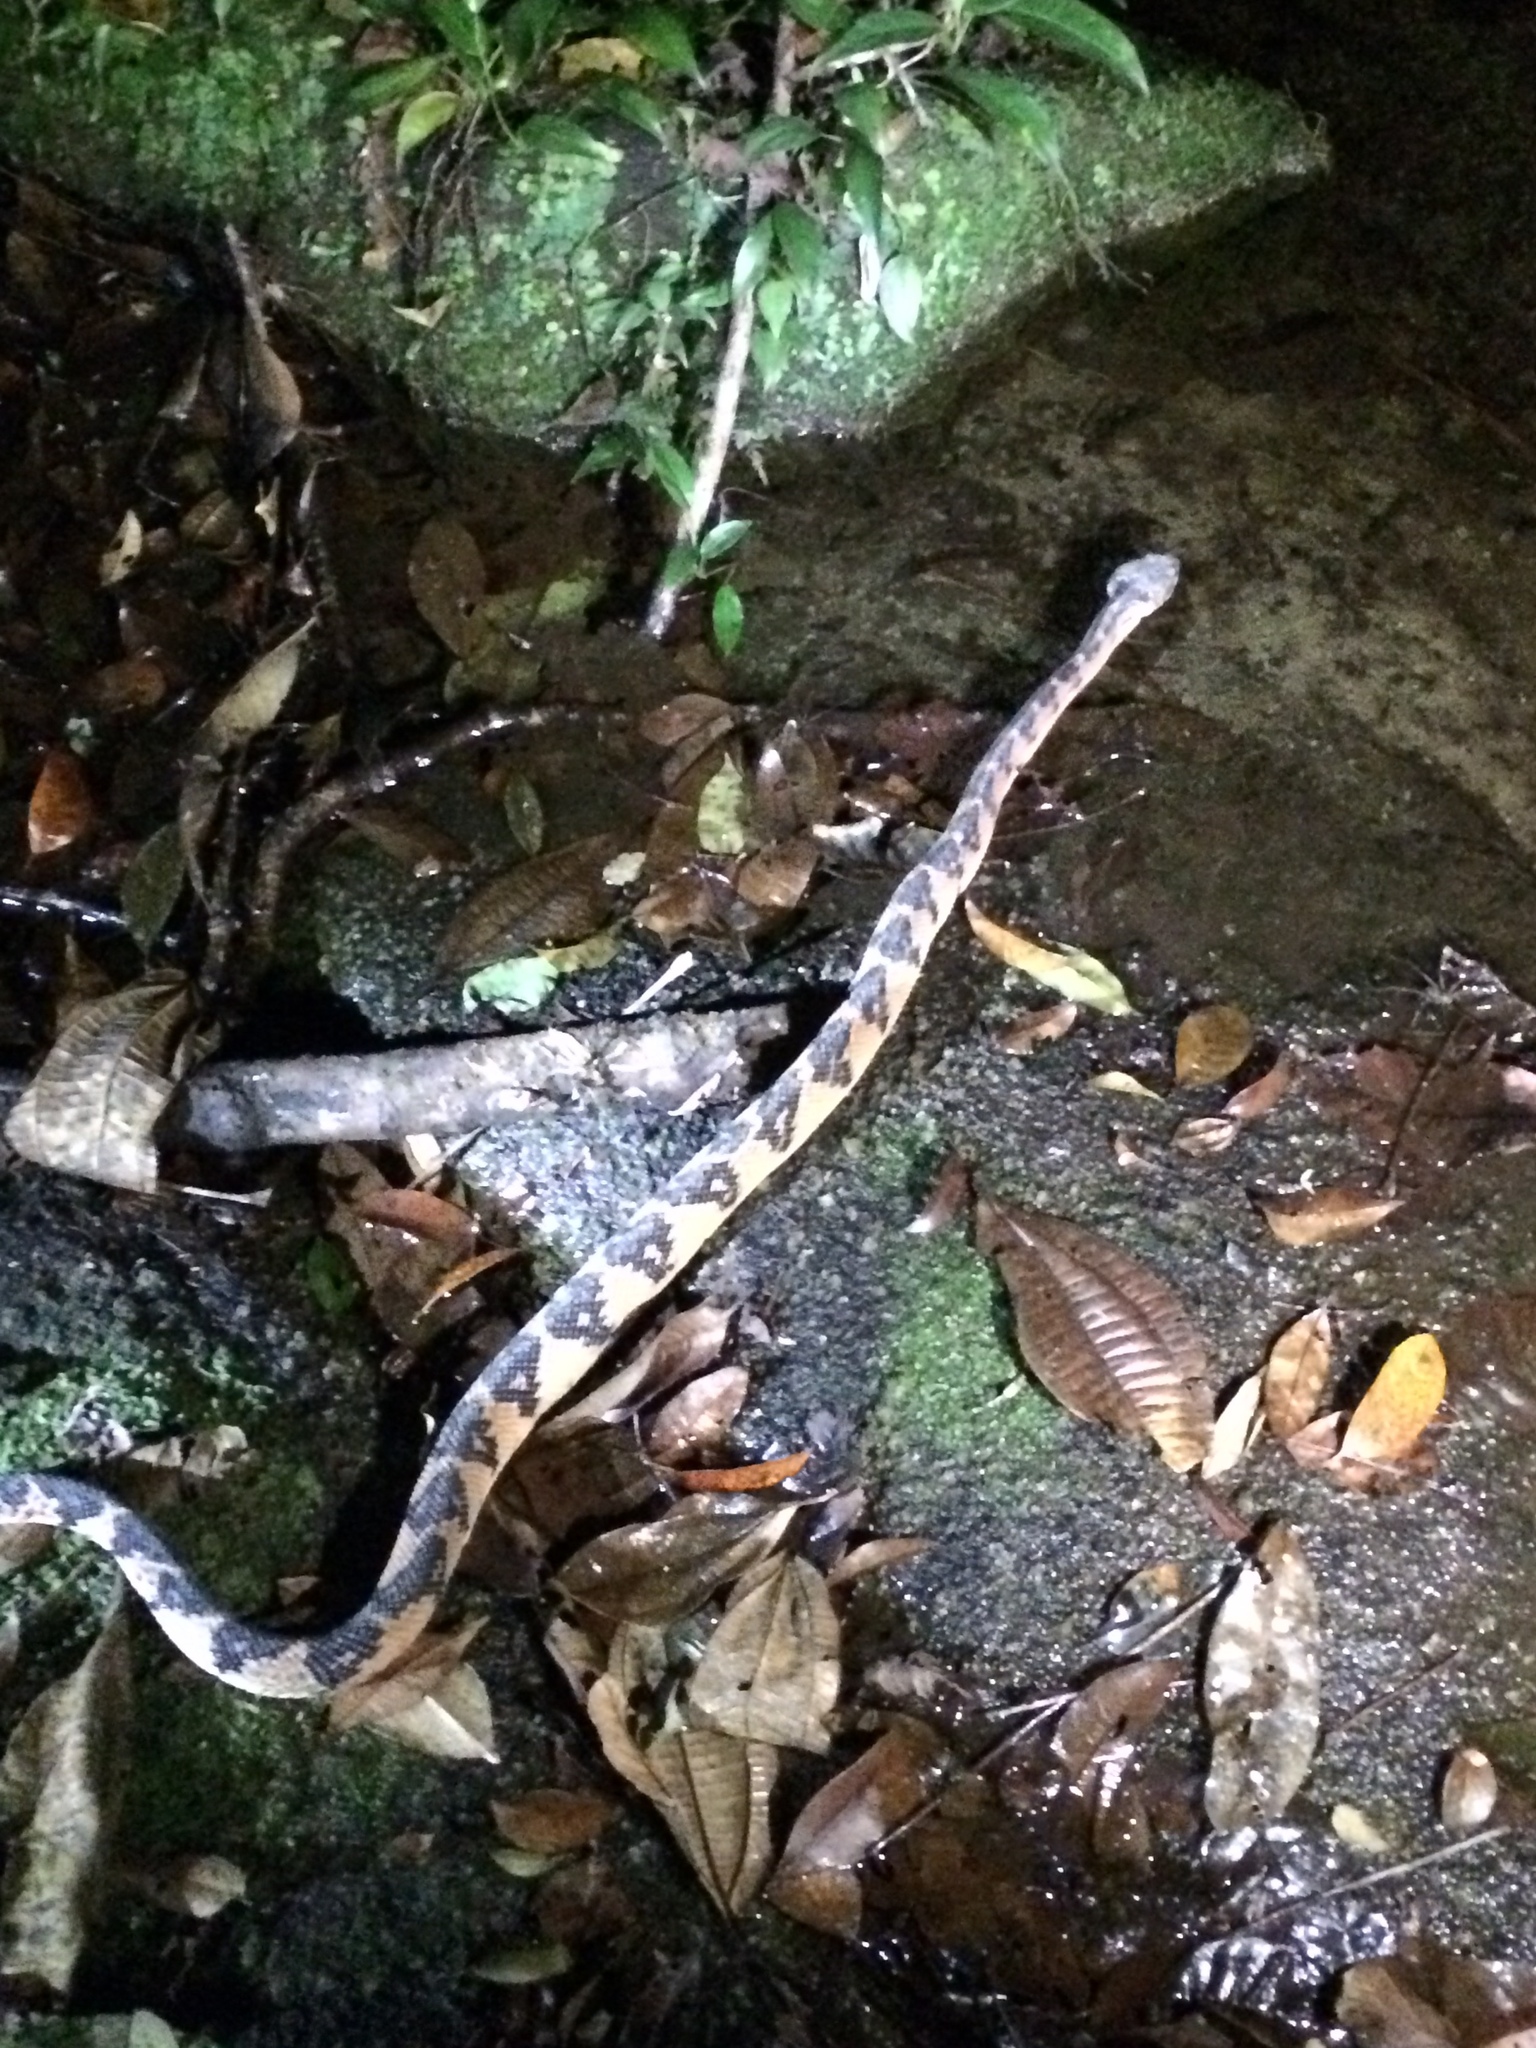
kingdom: Animalia
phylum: Chordata
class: Squamata
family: Viperidae
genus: Lachesis
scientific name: Lachesis muta
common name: South american bushmaster
